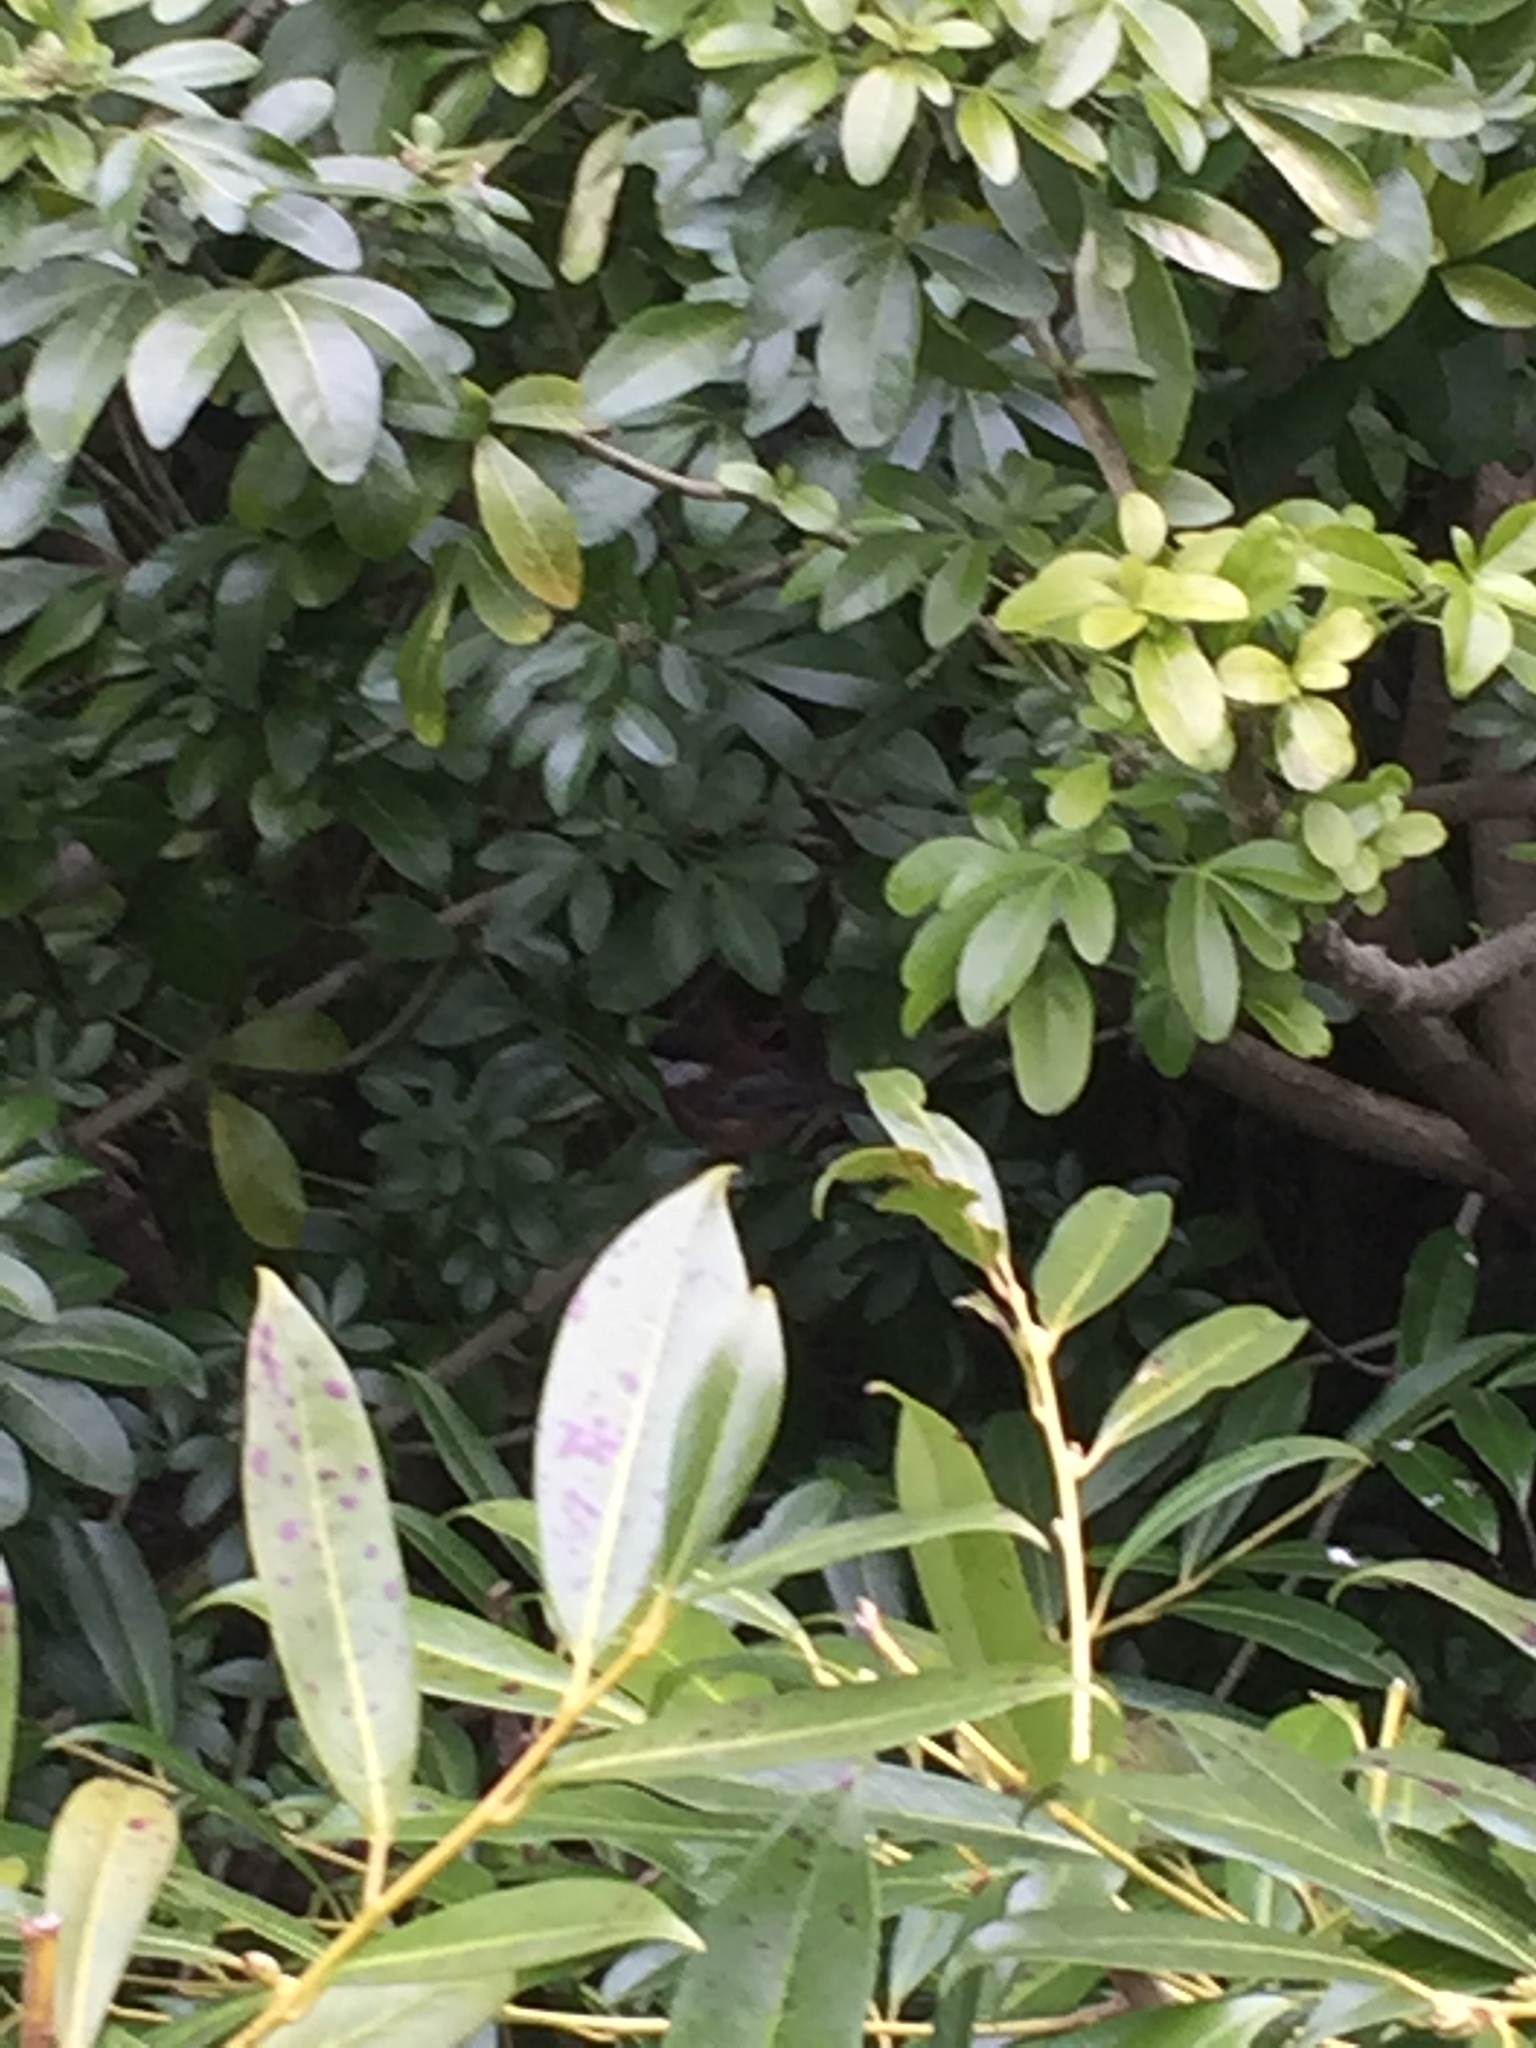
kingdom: Animalia
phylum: Chordata
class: Aves
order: Passeriformes
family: Paridae
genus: Poecile
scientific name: Poecile rufescens
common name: Chestnut-backed chickadee
